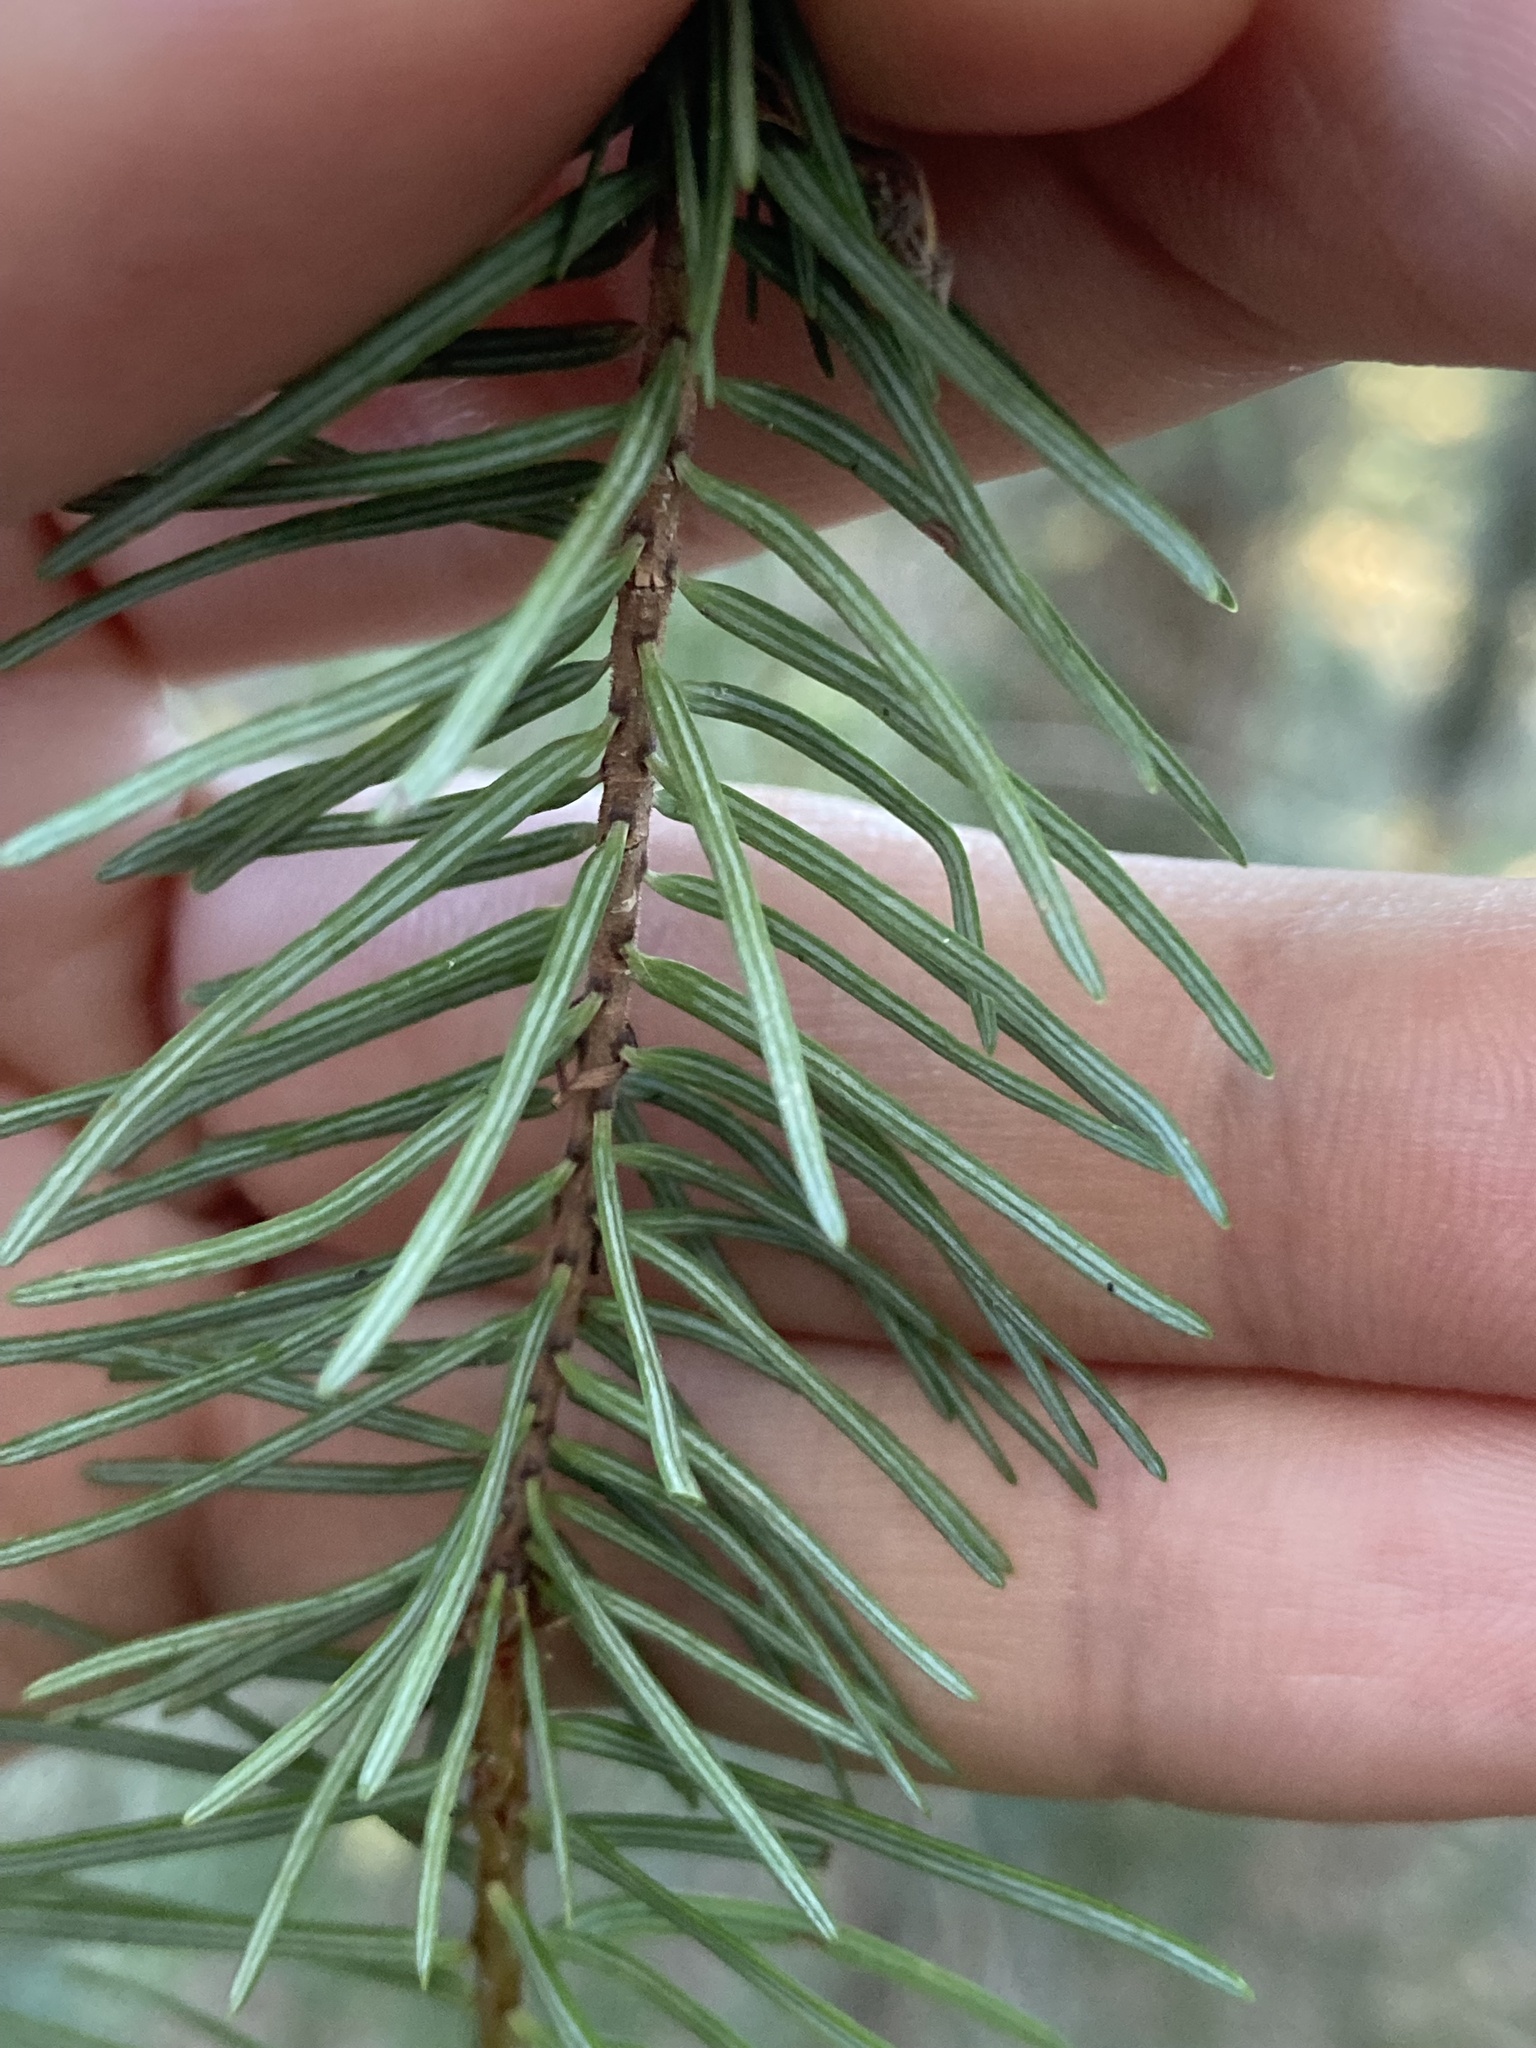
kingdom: Plantae
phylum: Tracheophyta
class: Pinopsida
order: Pinales
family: Pinaceae
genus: Pseudotsuga
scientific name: Pseudotsuga menziesii
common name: Douglas fir
